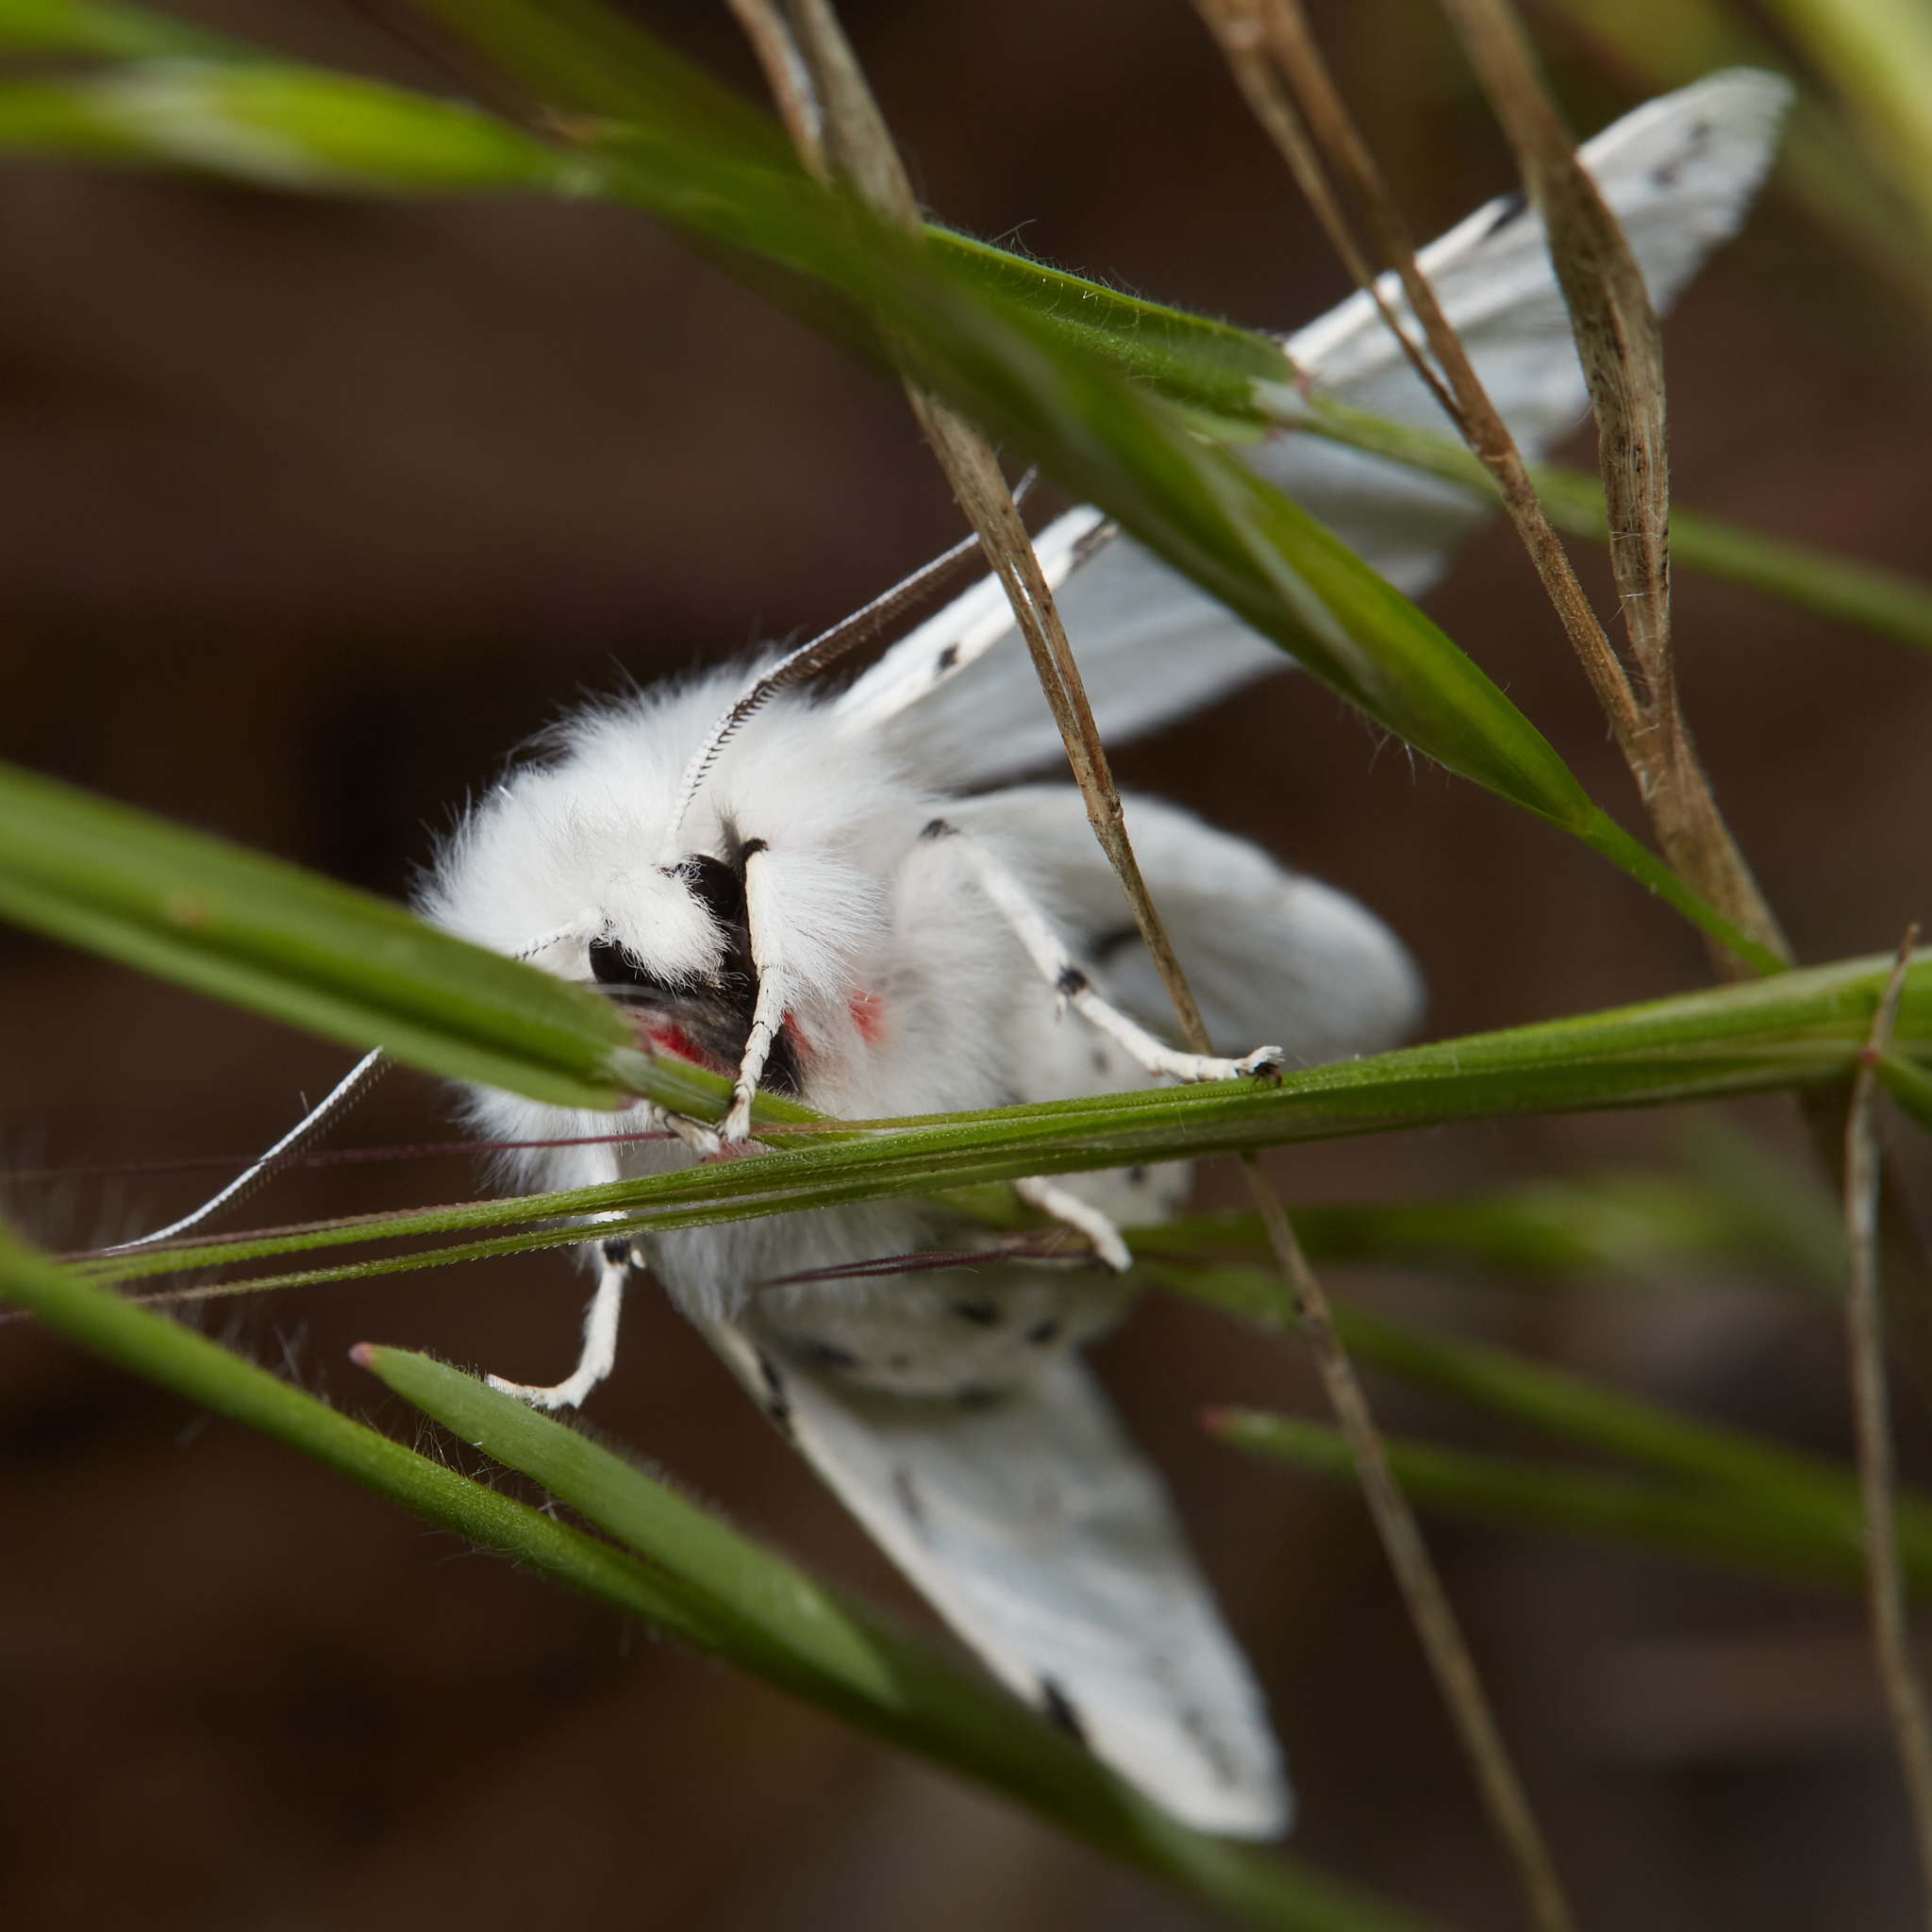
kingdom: Animalia
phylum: Arthropoda
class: Insecta
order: Lepidoptera
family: Erebidae
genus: Spilosoma
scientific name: Spilosoma vestalis
